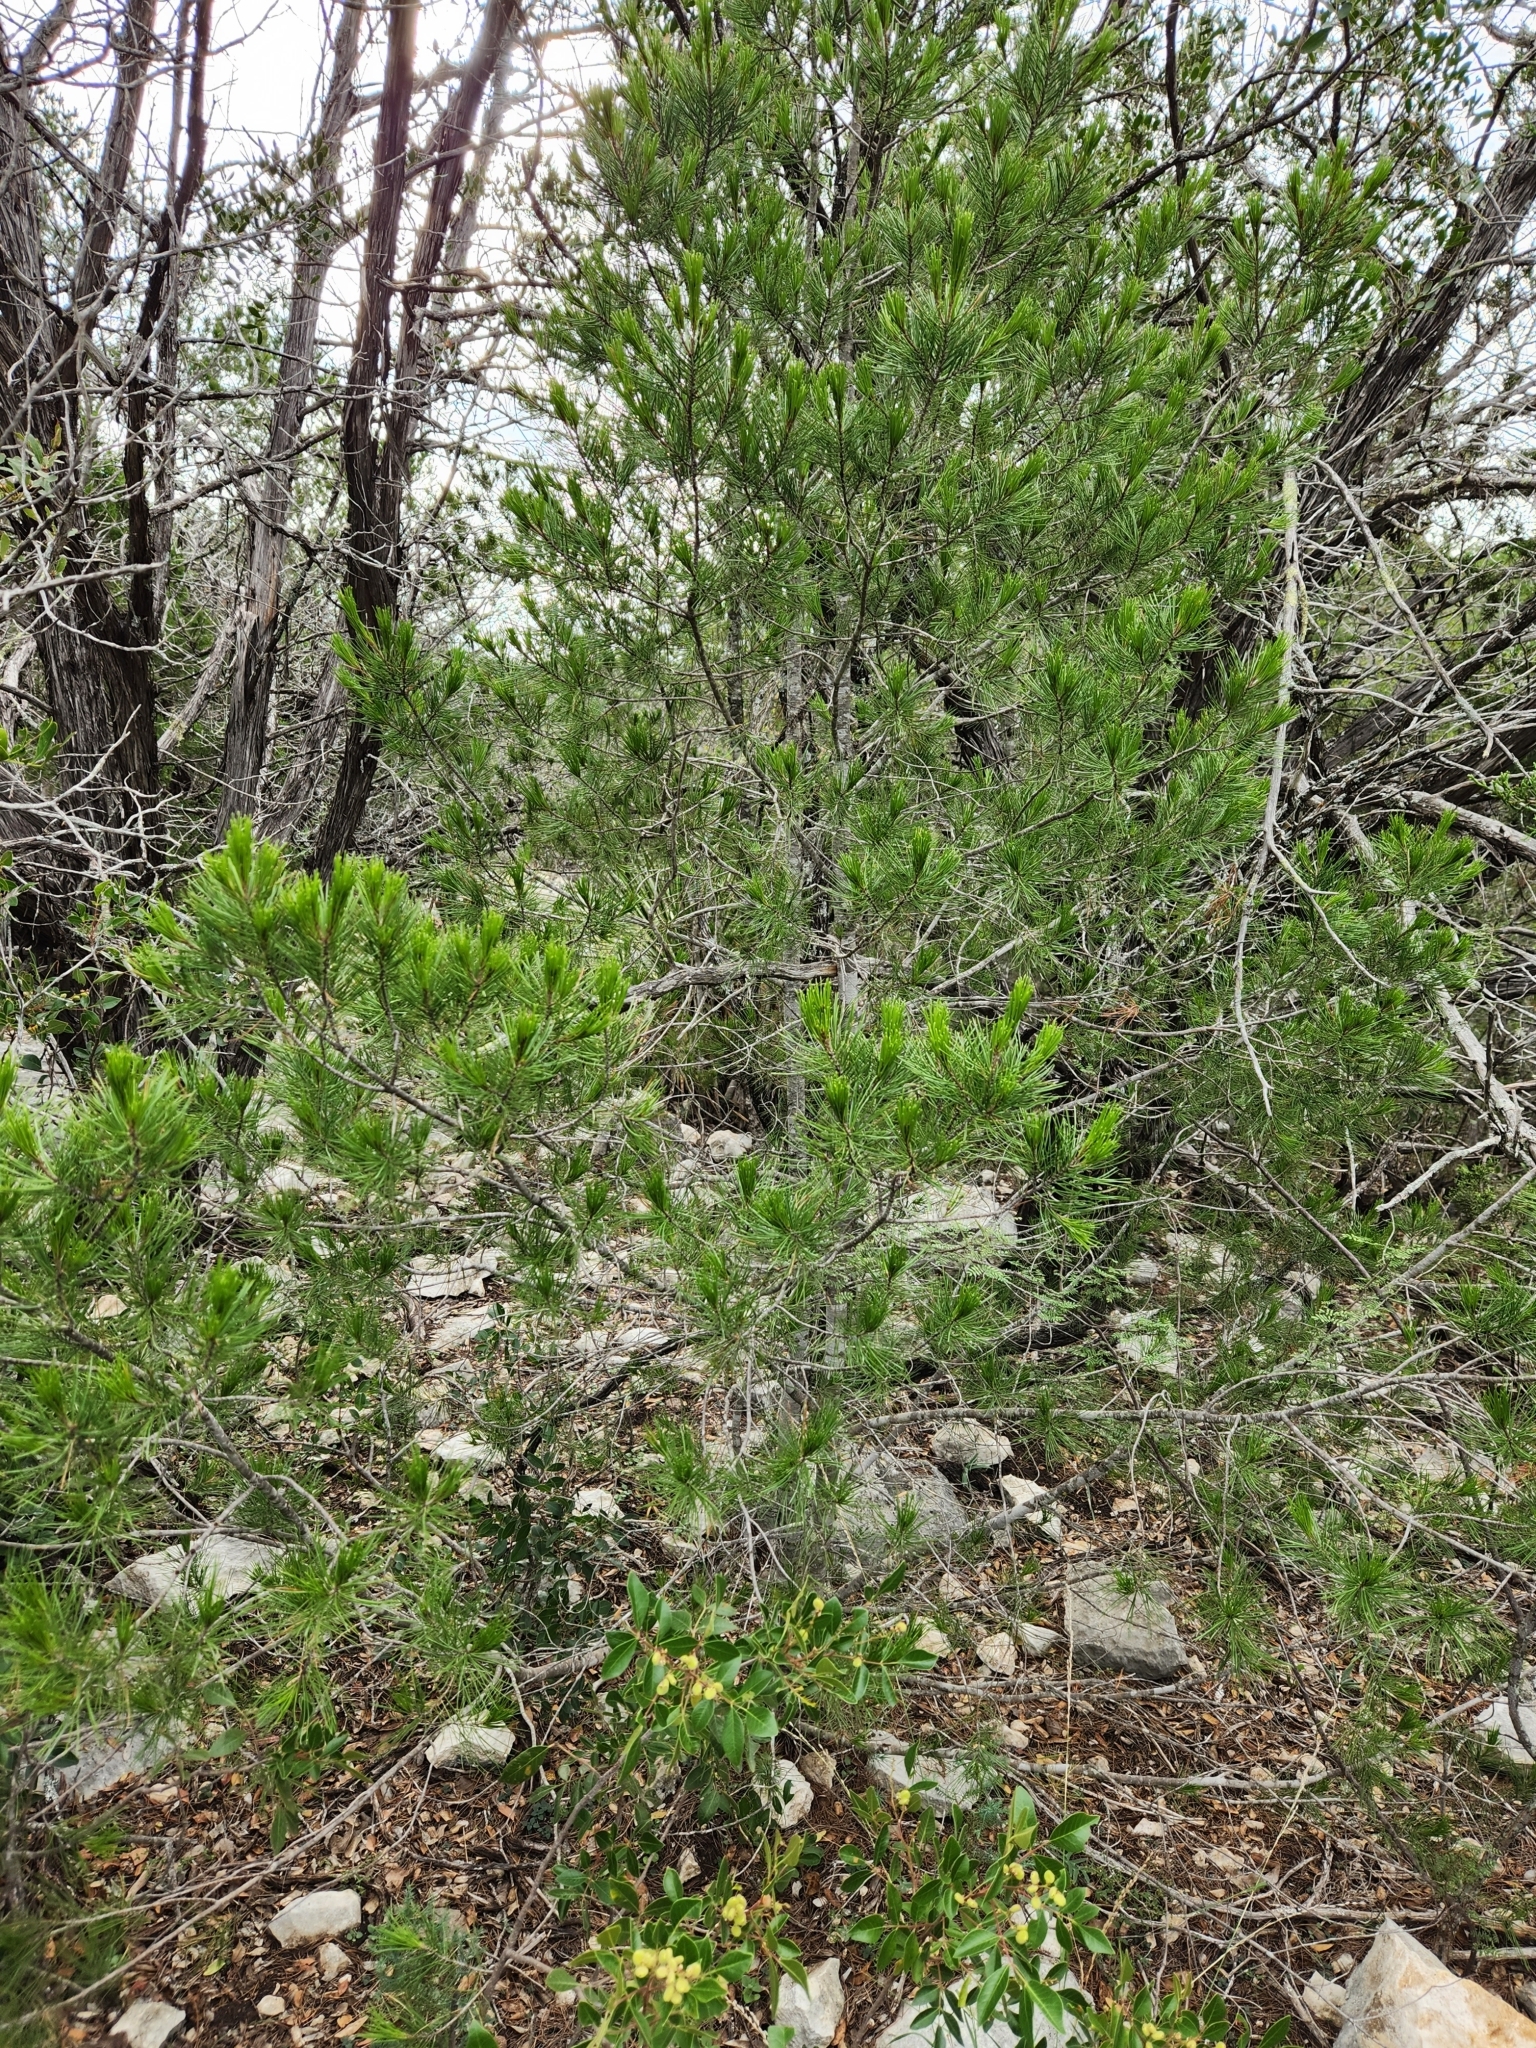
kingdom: Plantae
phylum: Tracheophyta
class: Pinopsida
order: Pinales
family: Pinaceae
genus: Pinus
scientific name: Pinus remota
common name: Nut pine
